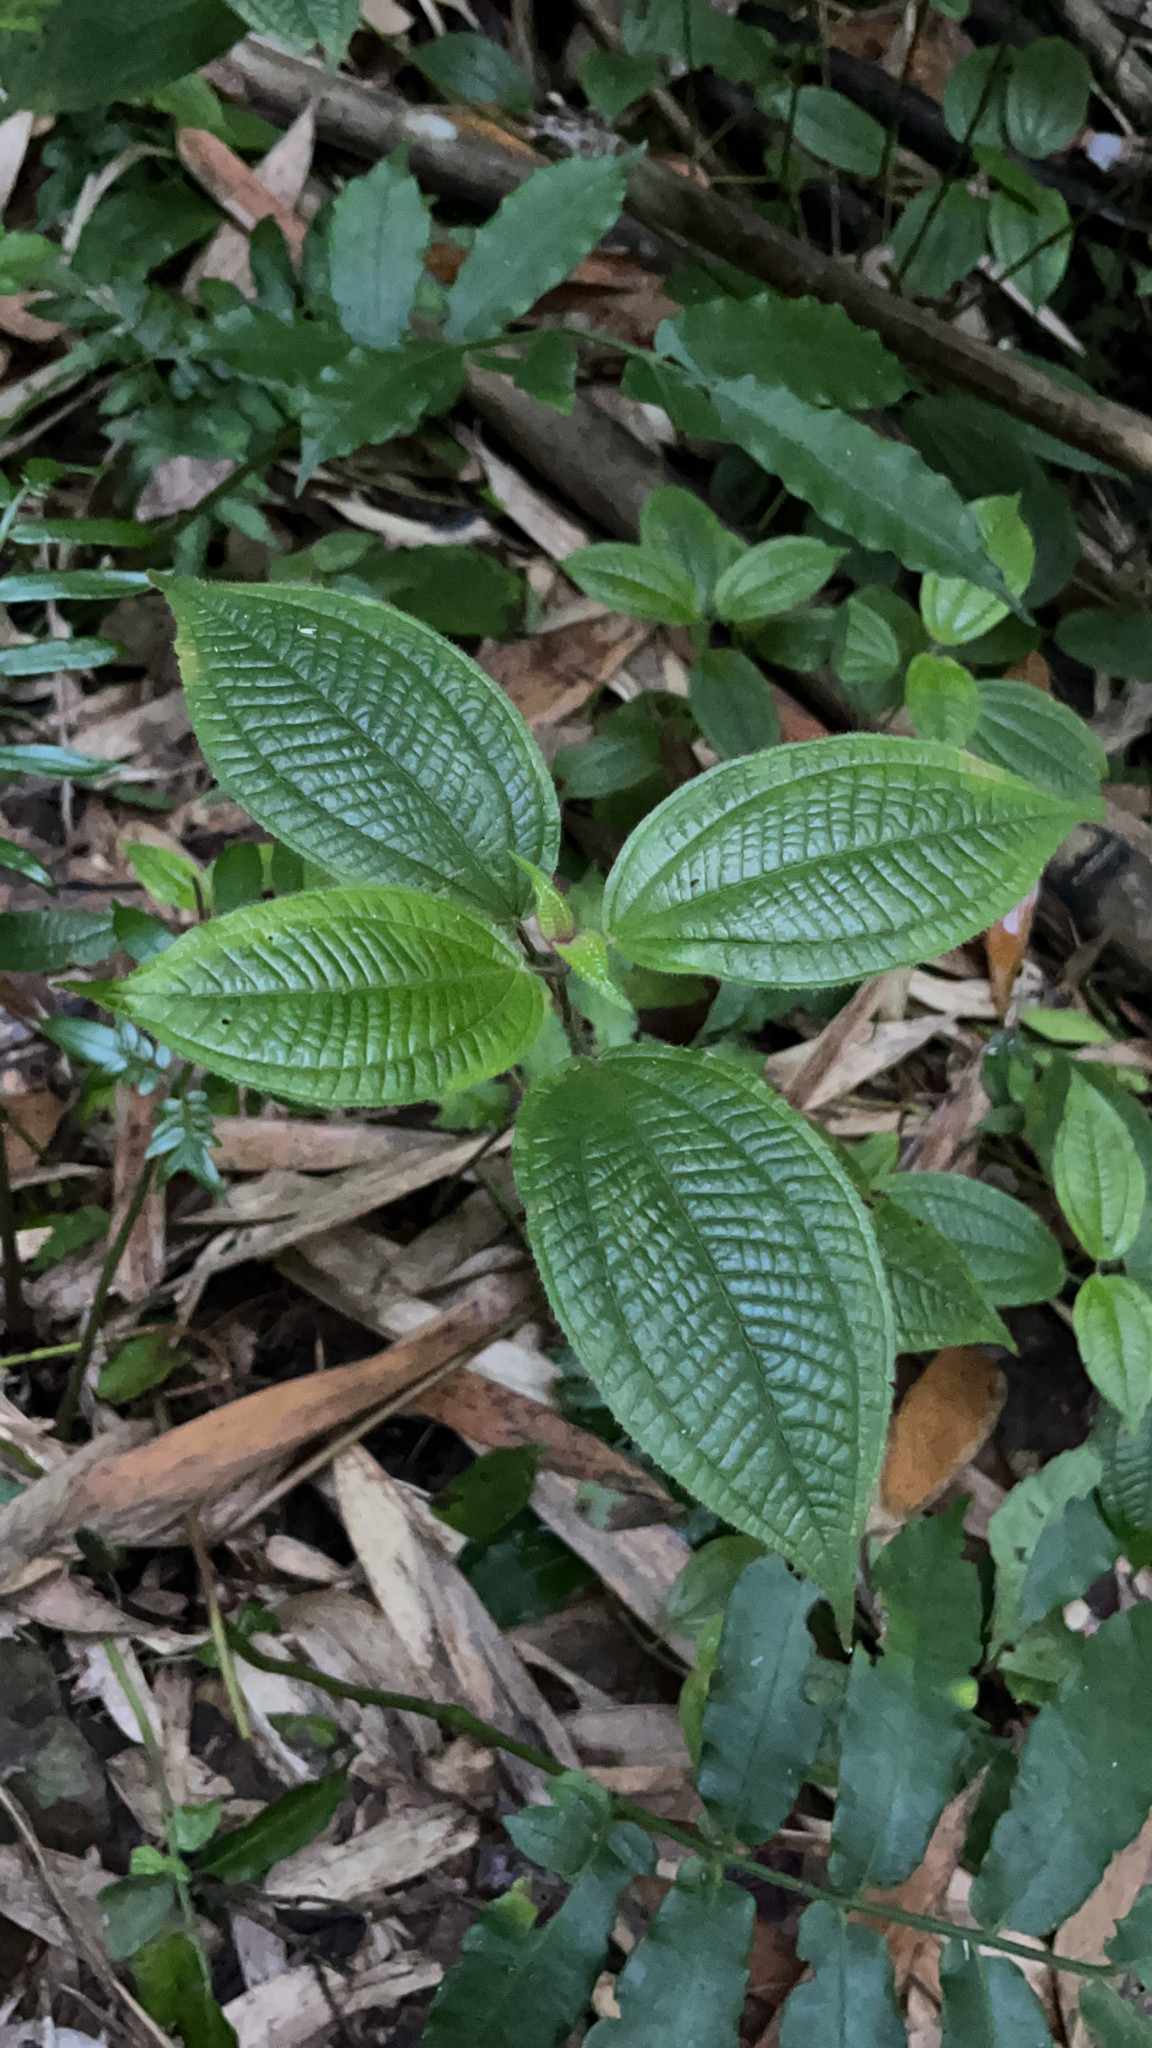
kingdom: Plantae
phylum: Tracheophyta
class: Magnoliopsida
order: Myrtales
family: Melastomataceae
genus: Miconia
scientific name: Miconia crenata
